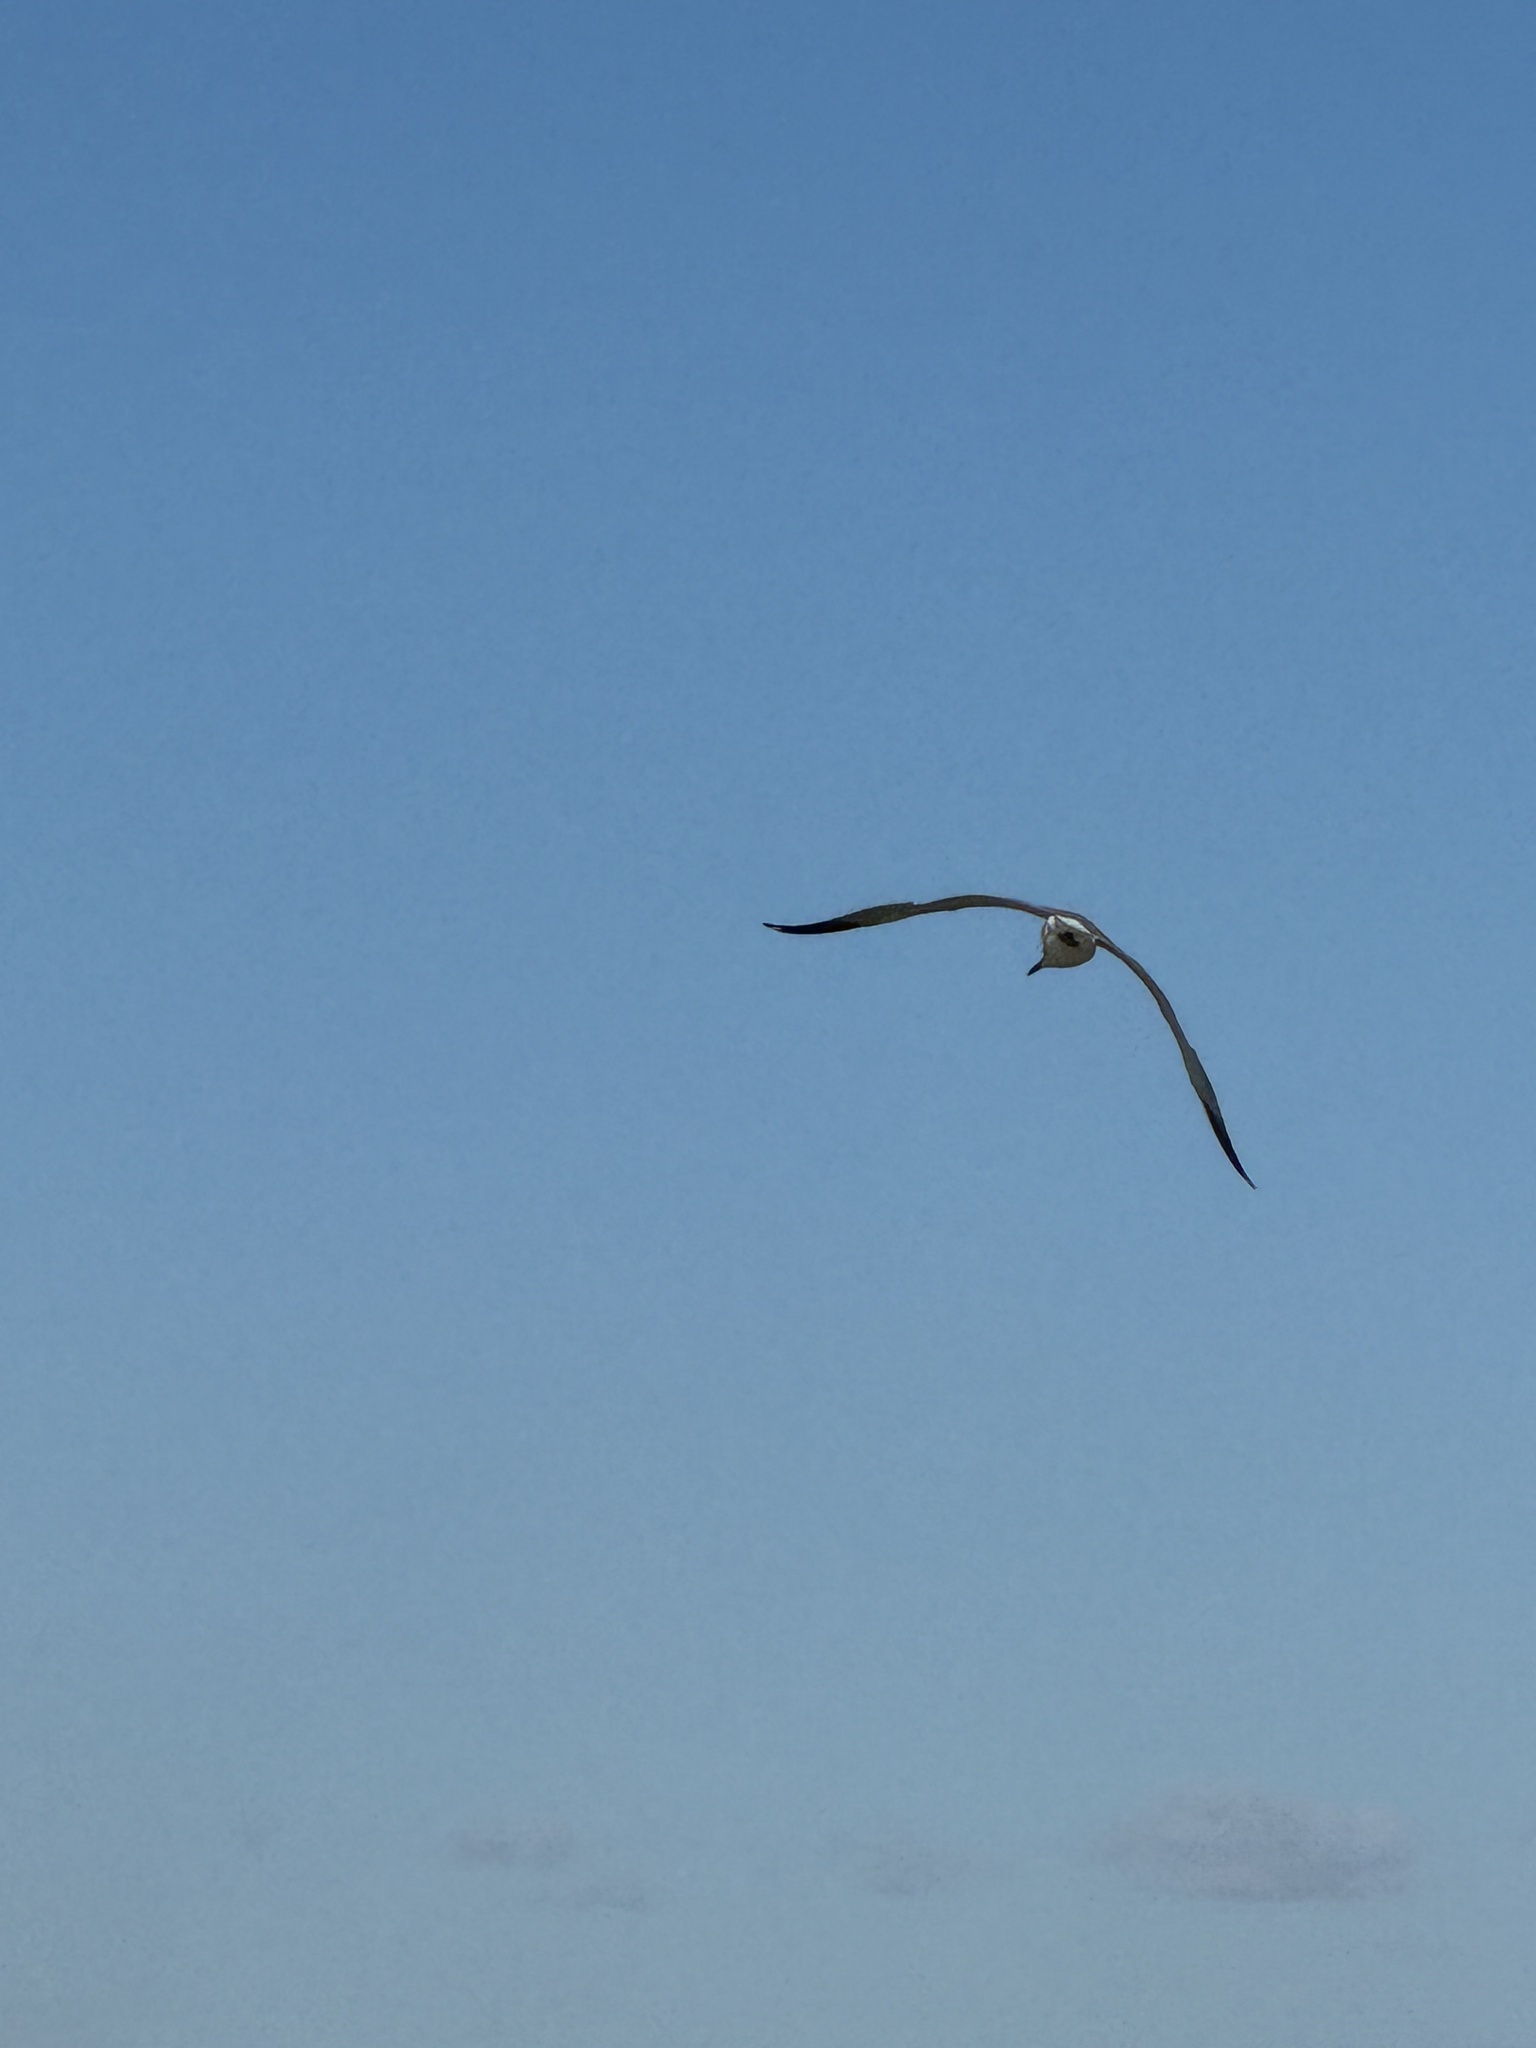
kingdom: Animalia
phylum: Chordata
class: Aves
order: Charadriiformes
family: Laridae
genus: Larus
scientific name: Larus delawarensis
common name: Ring-billed gull
